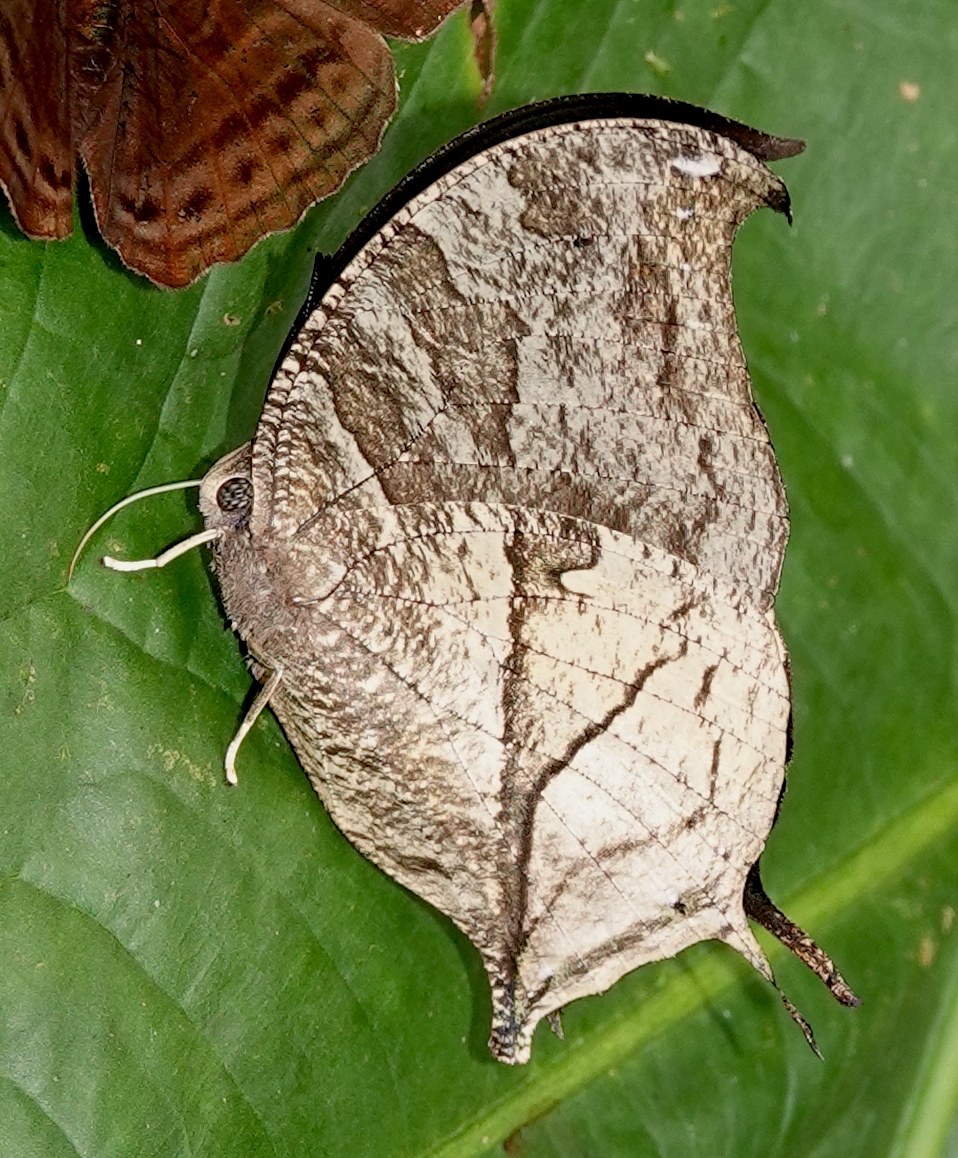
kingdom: Animalia
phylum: Arthropoda
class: Insecta
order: Lepidoptera
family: Nymphalidae
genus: Consul
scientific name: Consul panariste
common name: Tricolored leafwing
